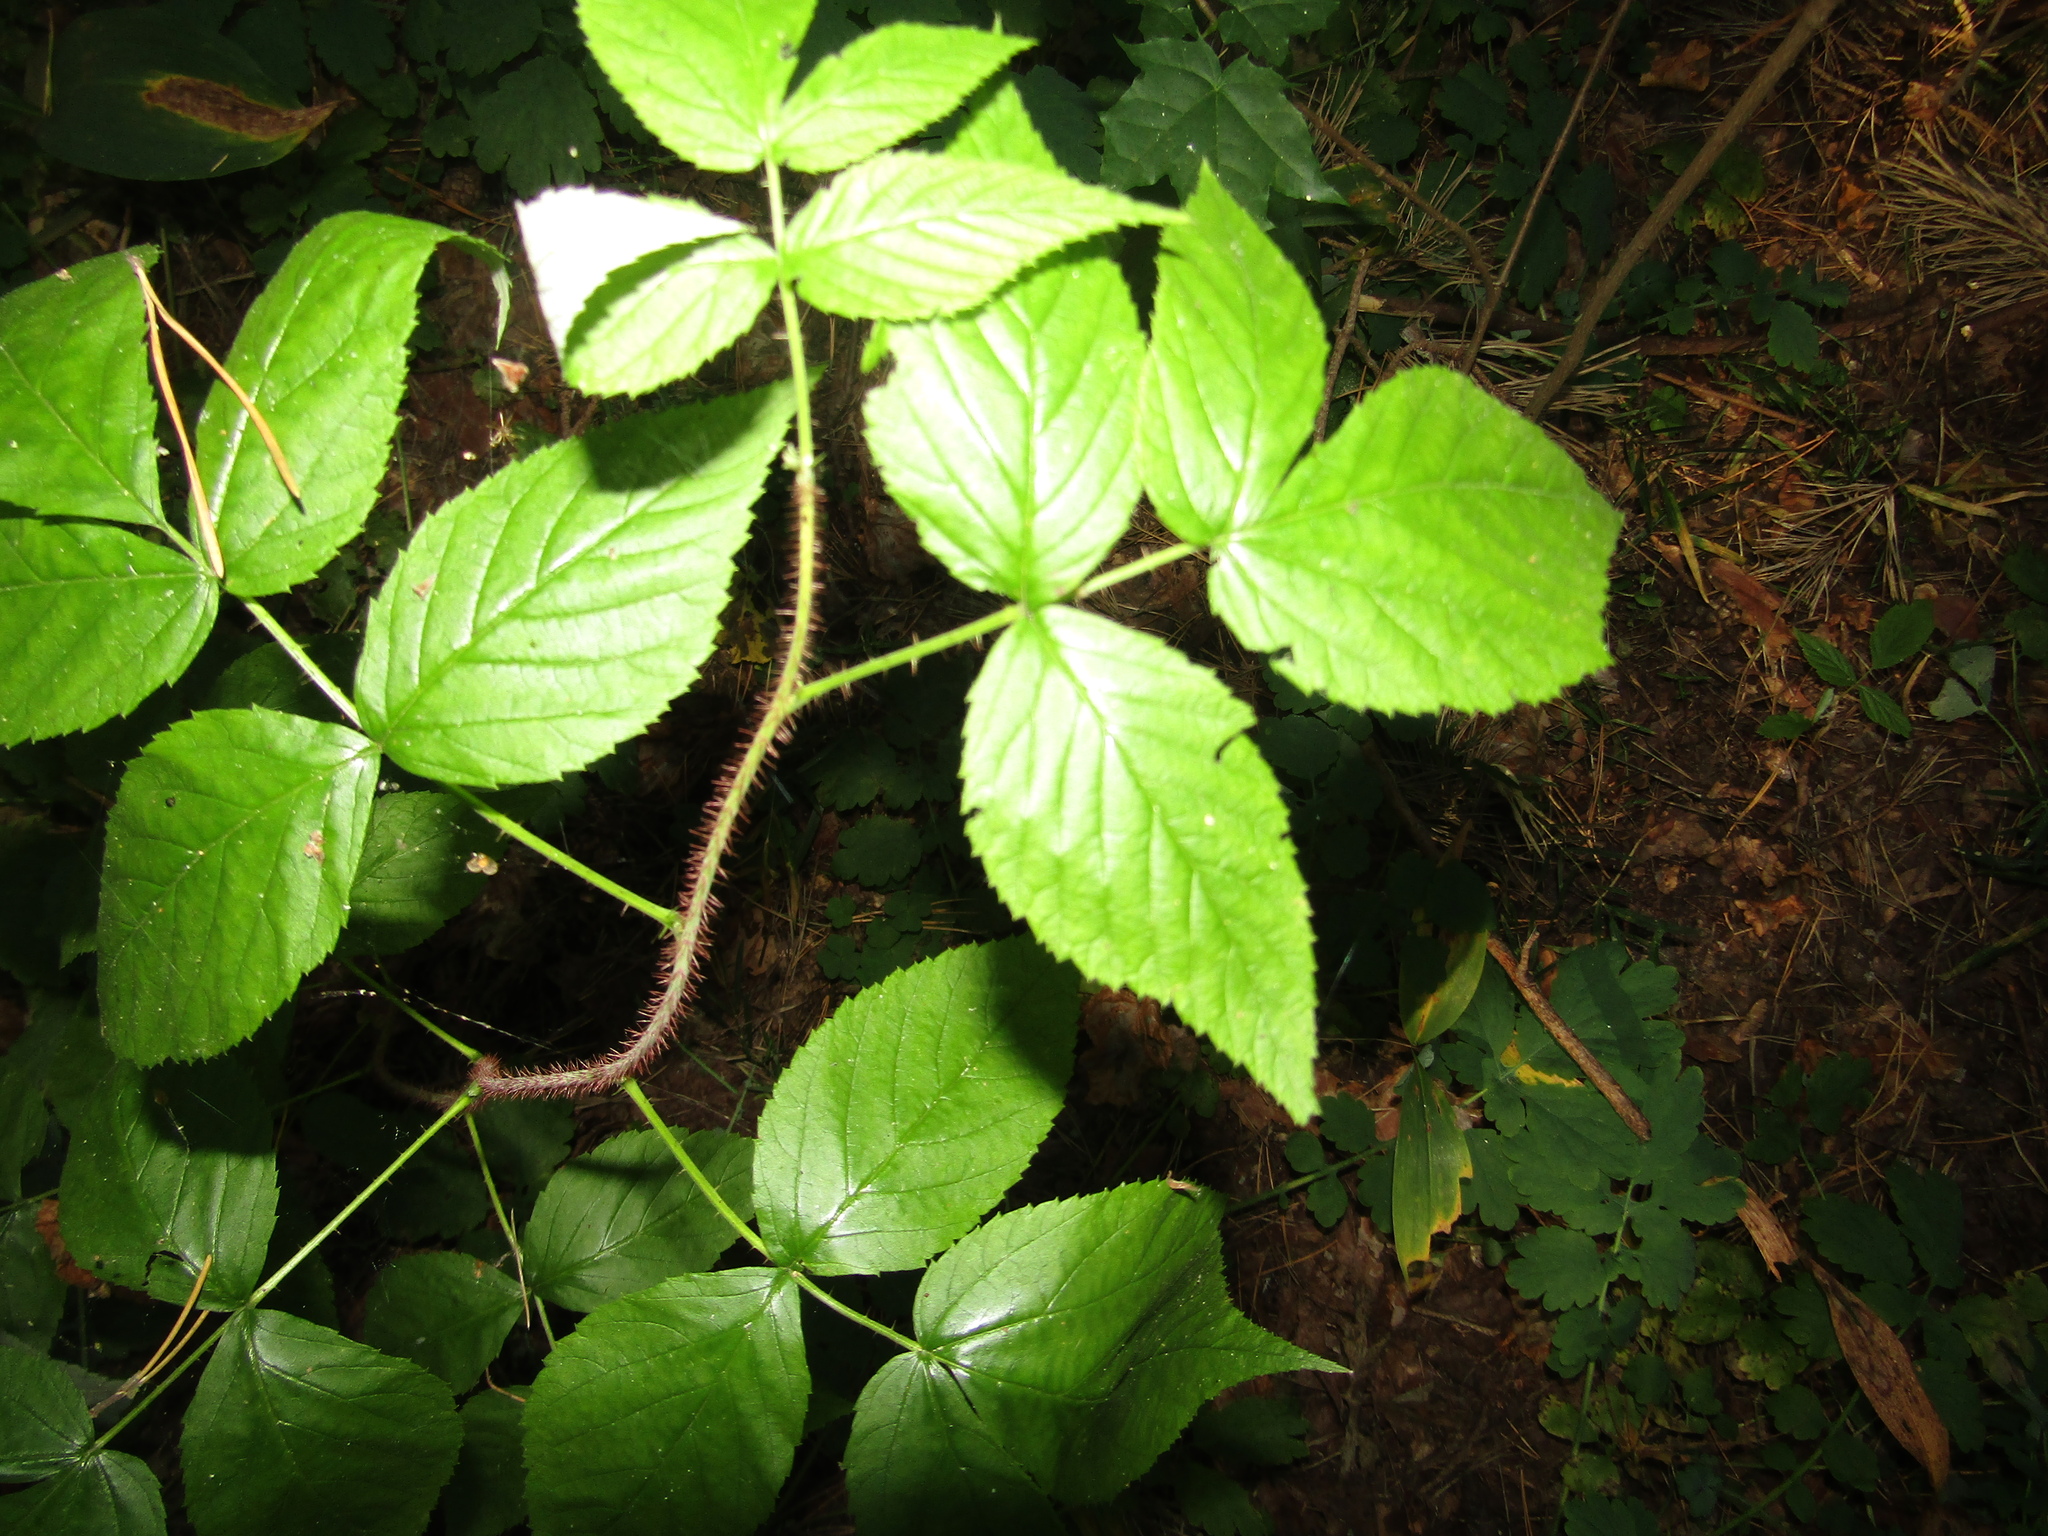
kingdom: Plantae
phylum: Tracheophyta
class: Magnoliopsida
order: Rosales
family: Rosaceae
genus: Rubus
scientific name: Rubus idaeus
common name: Raspberry
